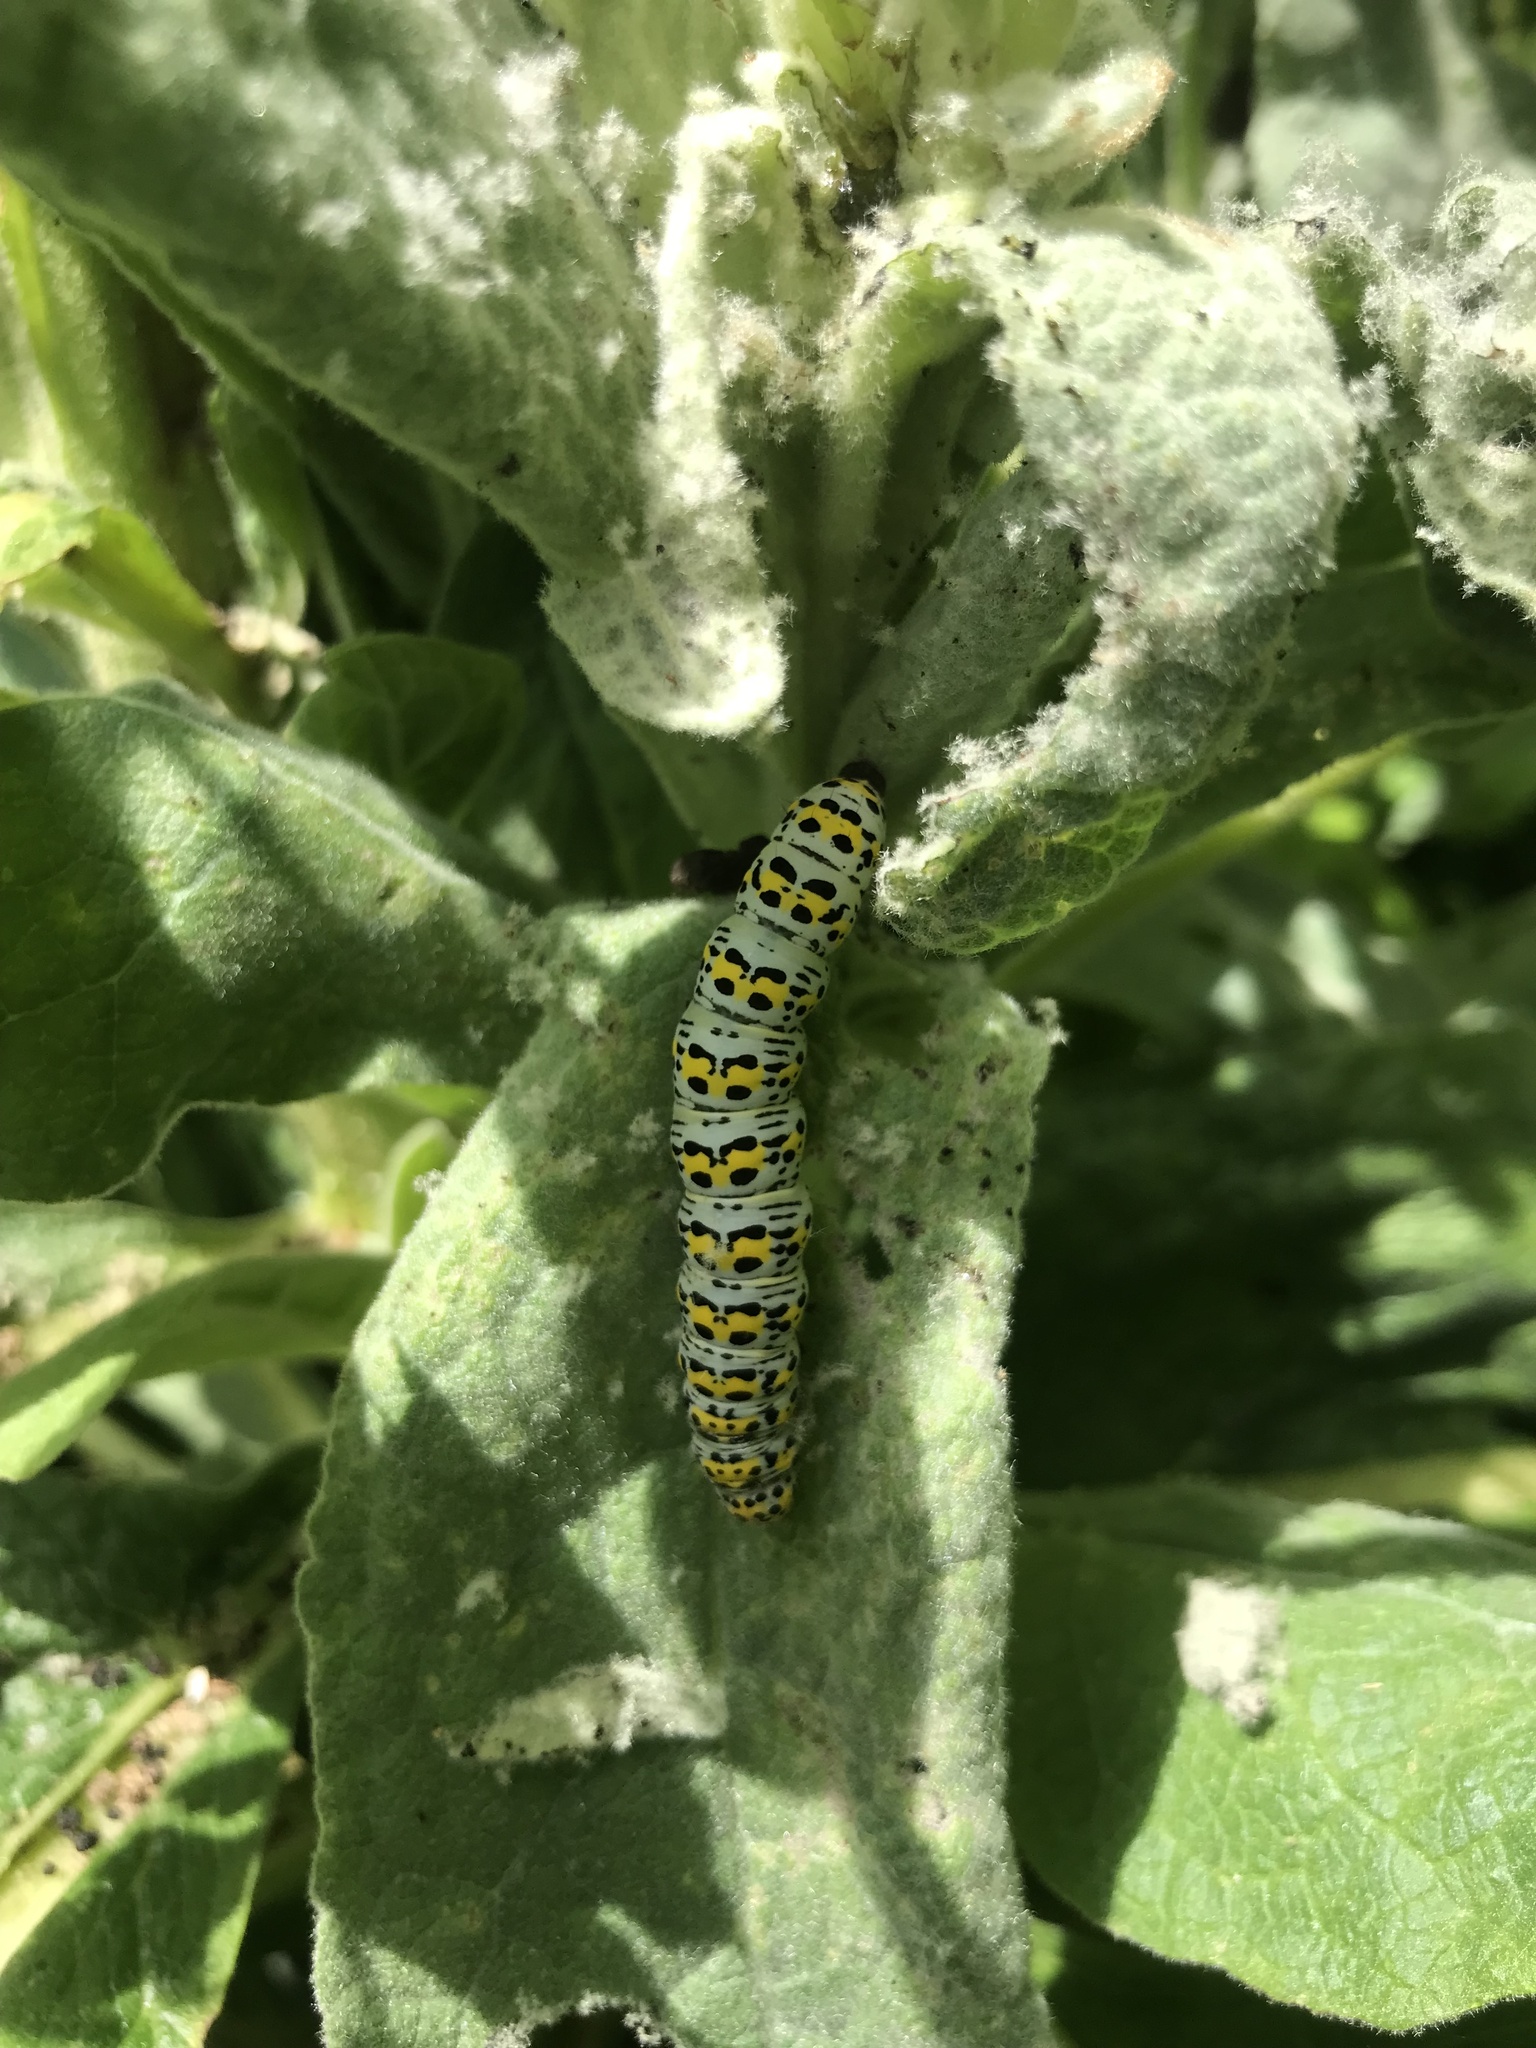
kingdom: Animalia
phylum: Arthropoda
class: Insecta
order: Lepidoptera
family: Noctuidae
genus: Cucullia
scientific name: Cucullia verbasci
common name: Mullein
